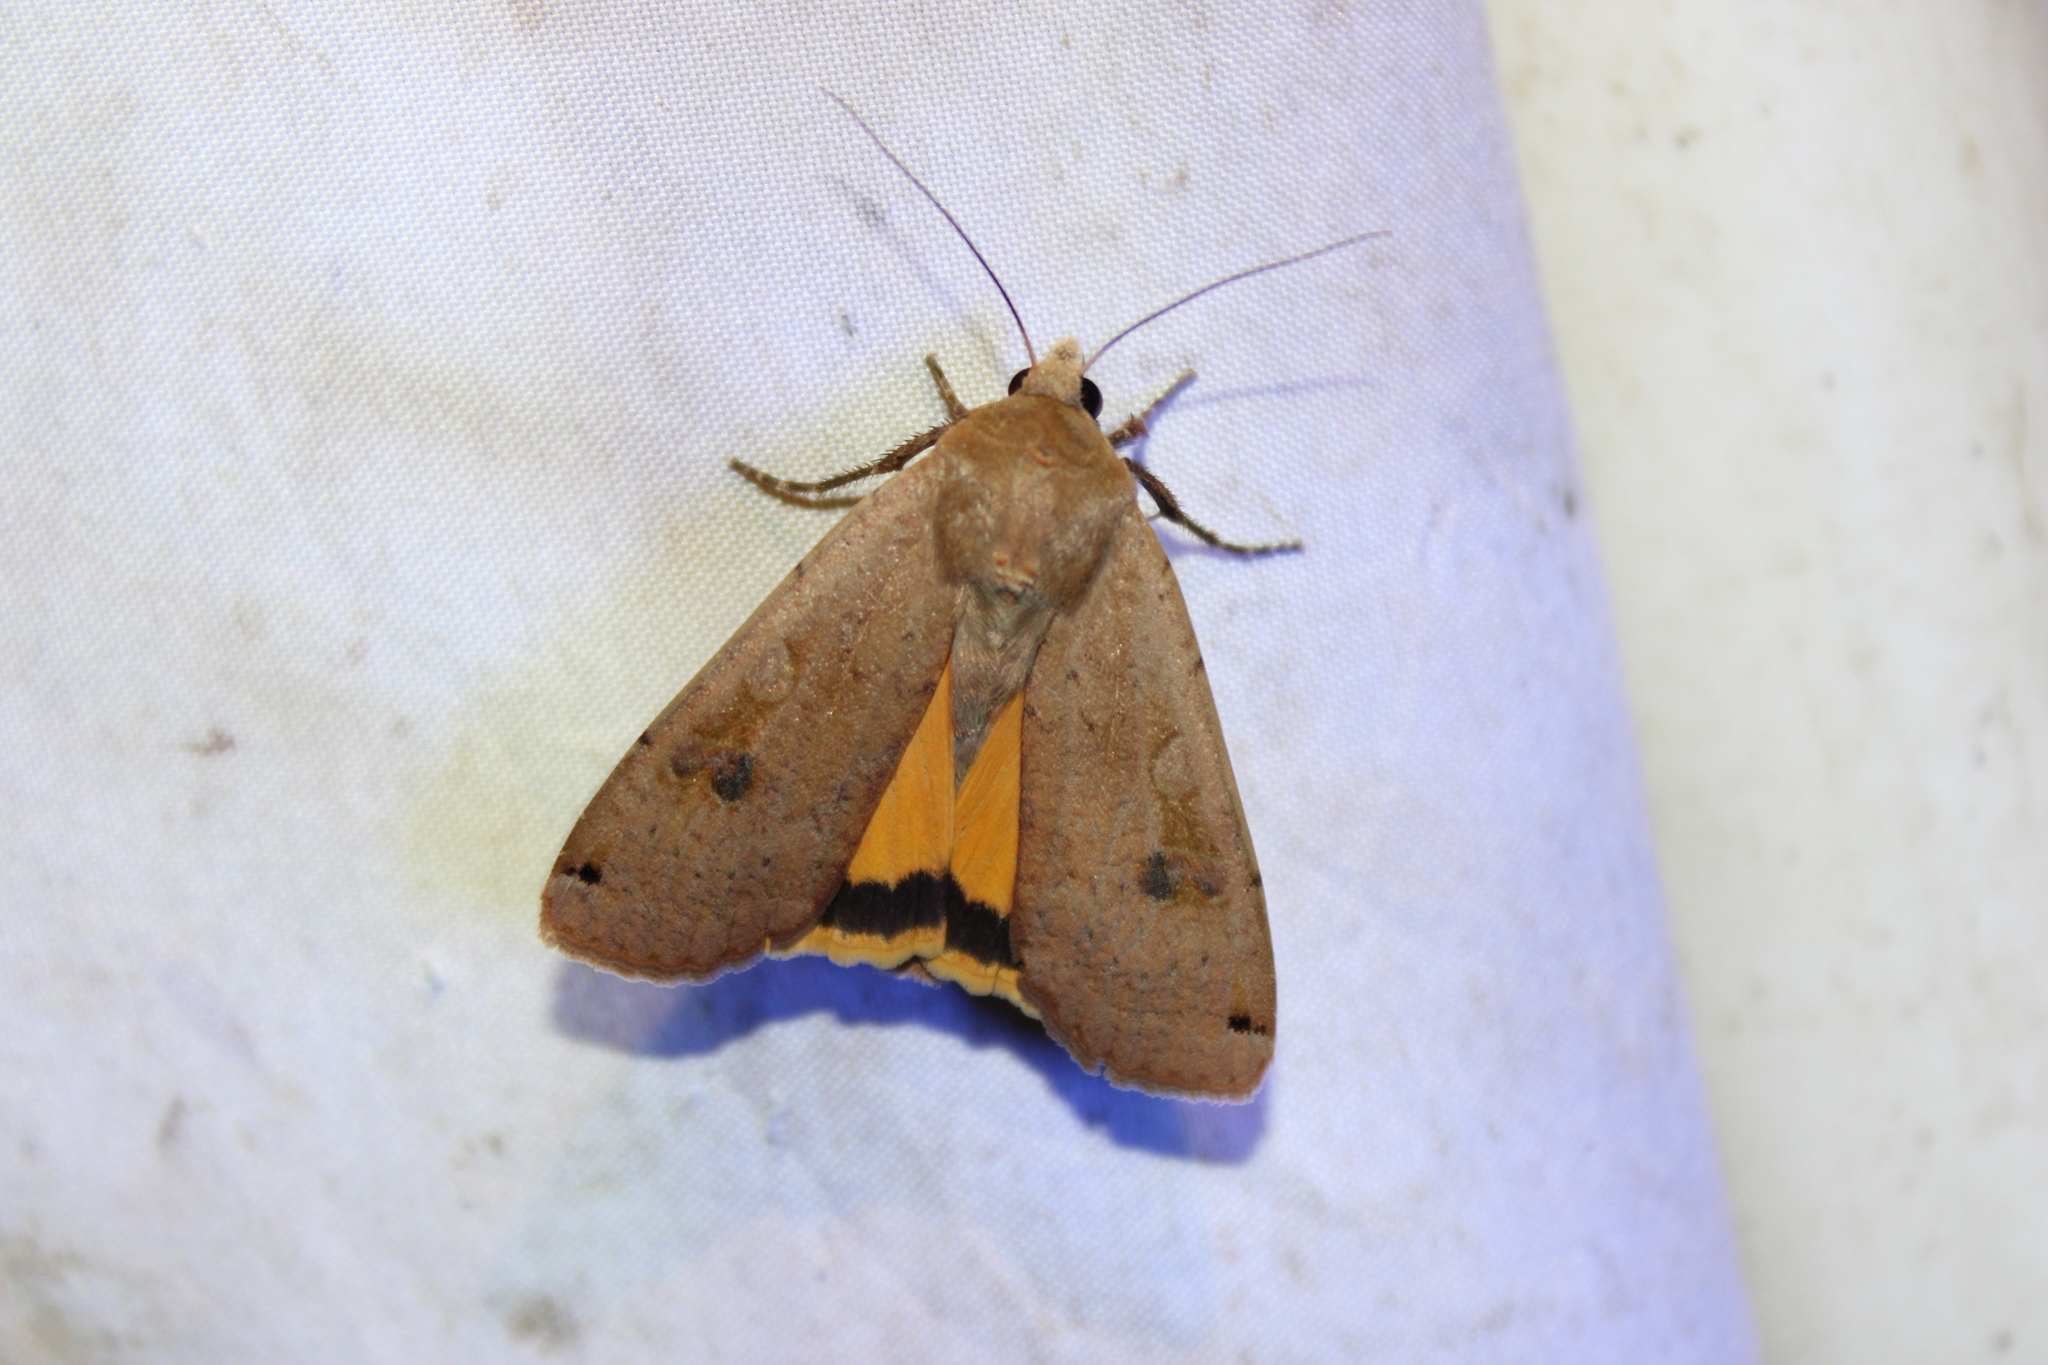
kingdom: Animalia
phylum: Arthropoda
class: Insecta
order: Lepidoptera
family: Noctuidae
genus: Noctua
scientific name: Noctua pronuba
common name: Large yellow underwing
